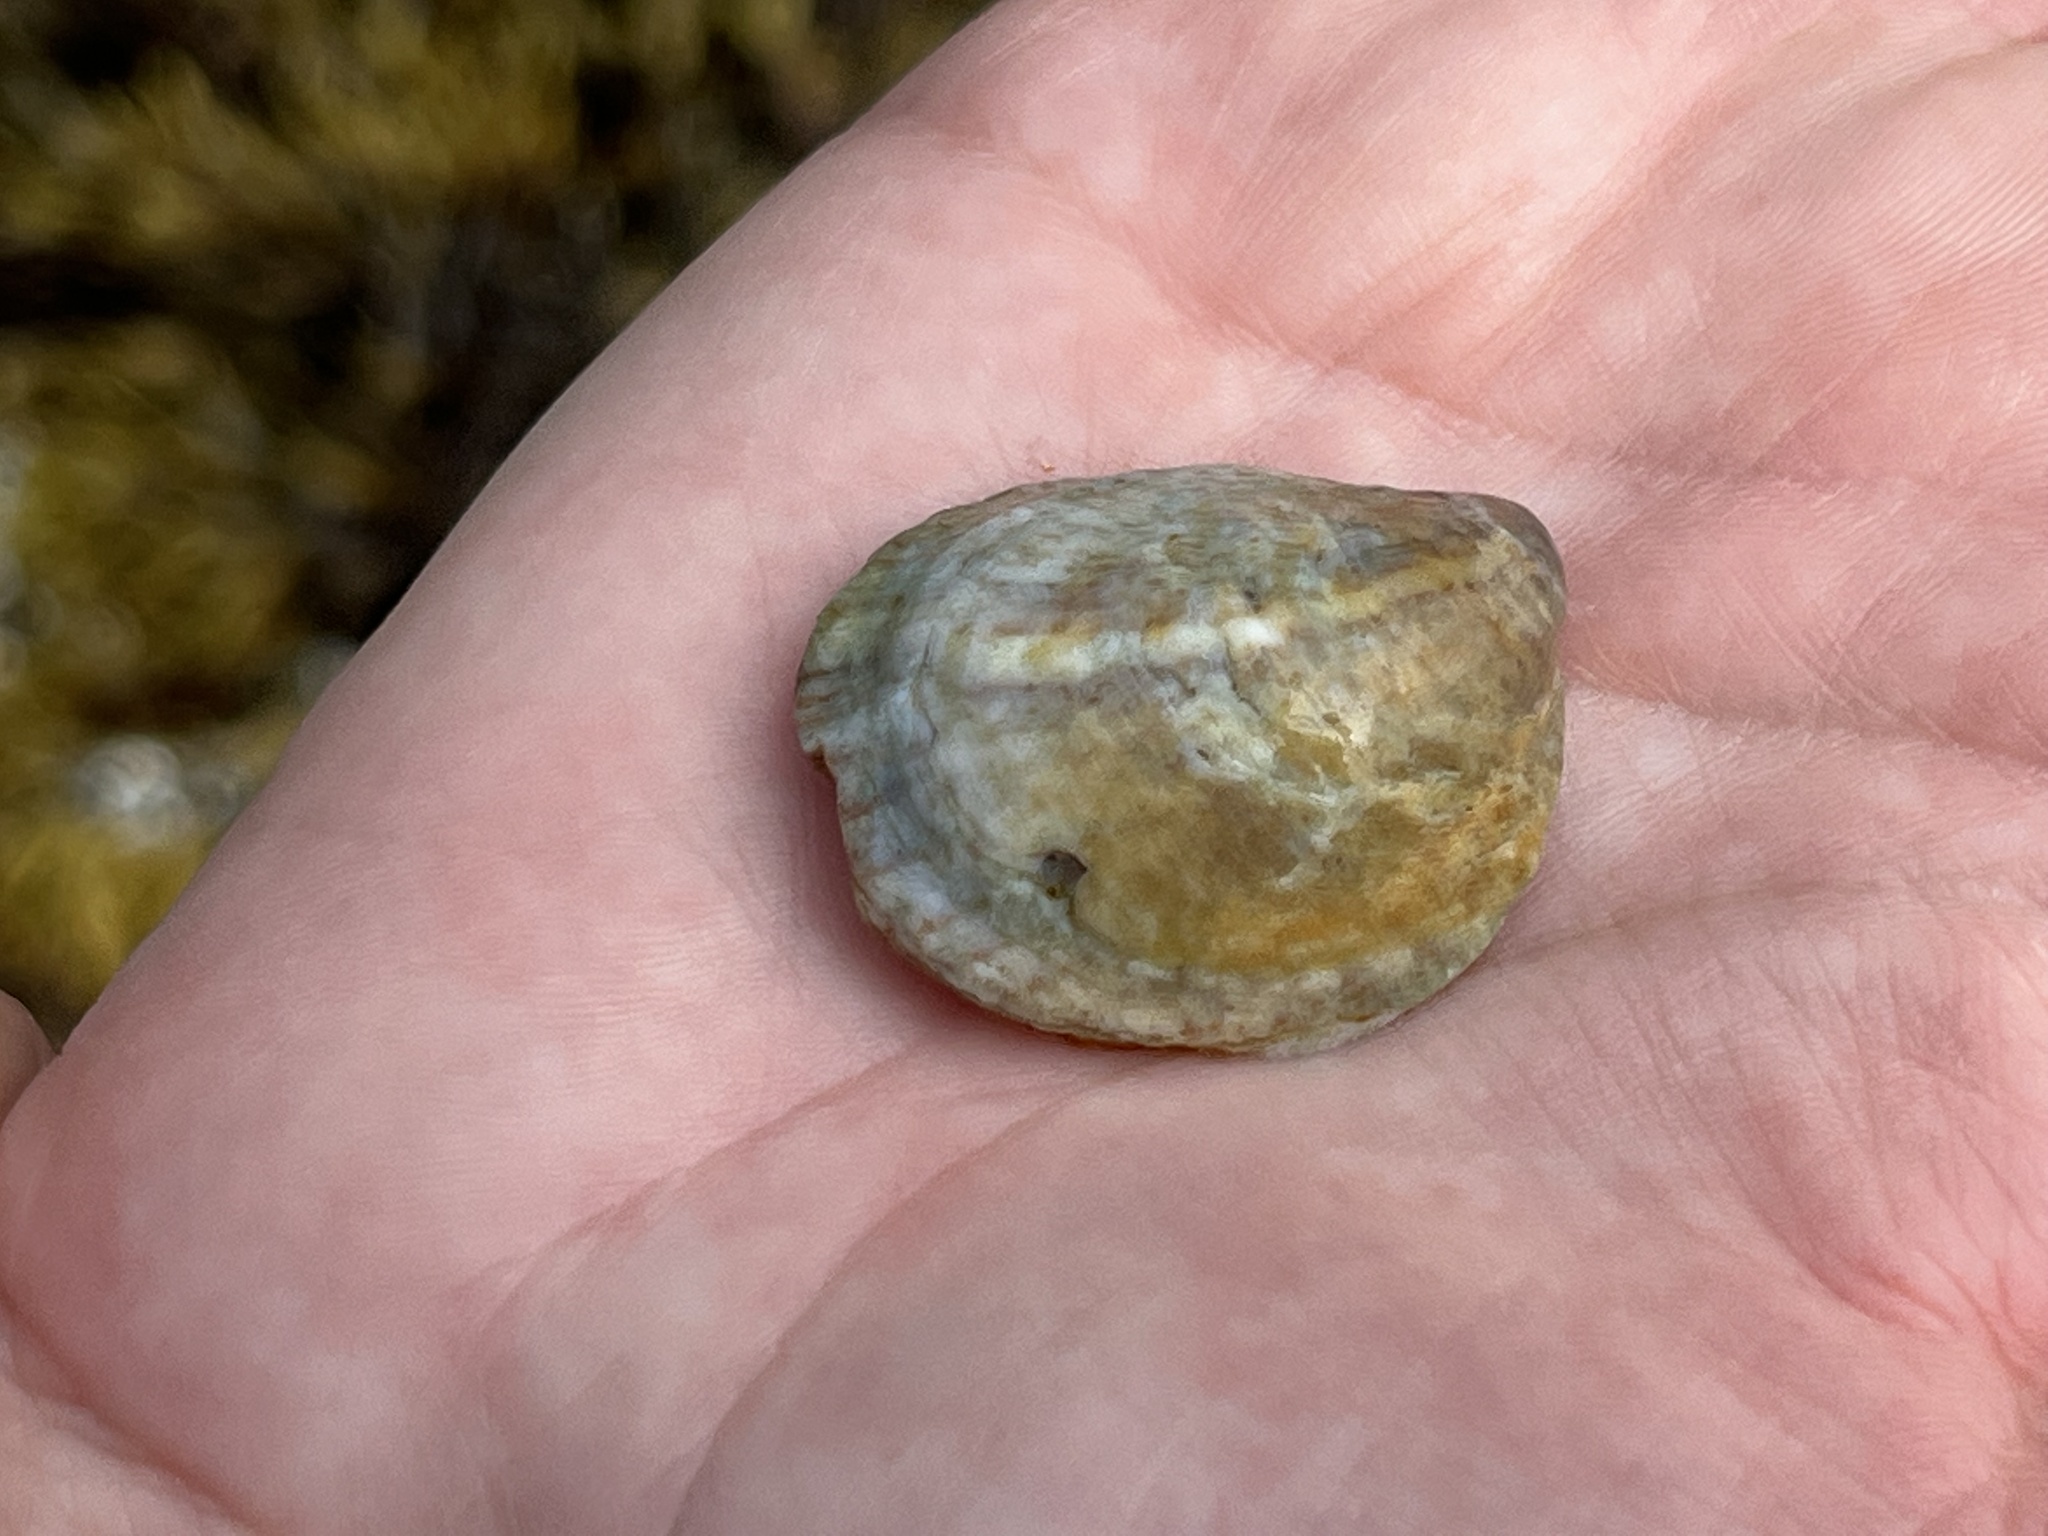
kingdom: Animalia
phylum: Mollusca
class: Gastropoda
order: Littorinimorpha
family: Calyptraeidae
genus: Crepidula
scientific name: Crepidula fornicata
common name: Slipper limpet
